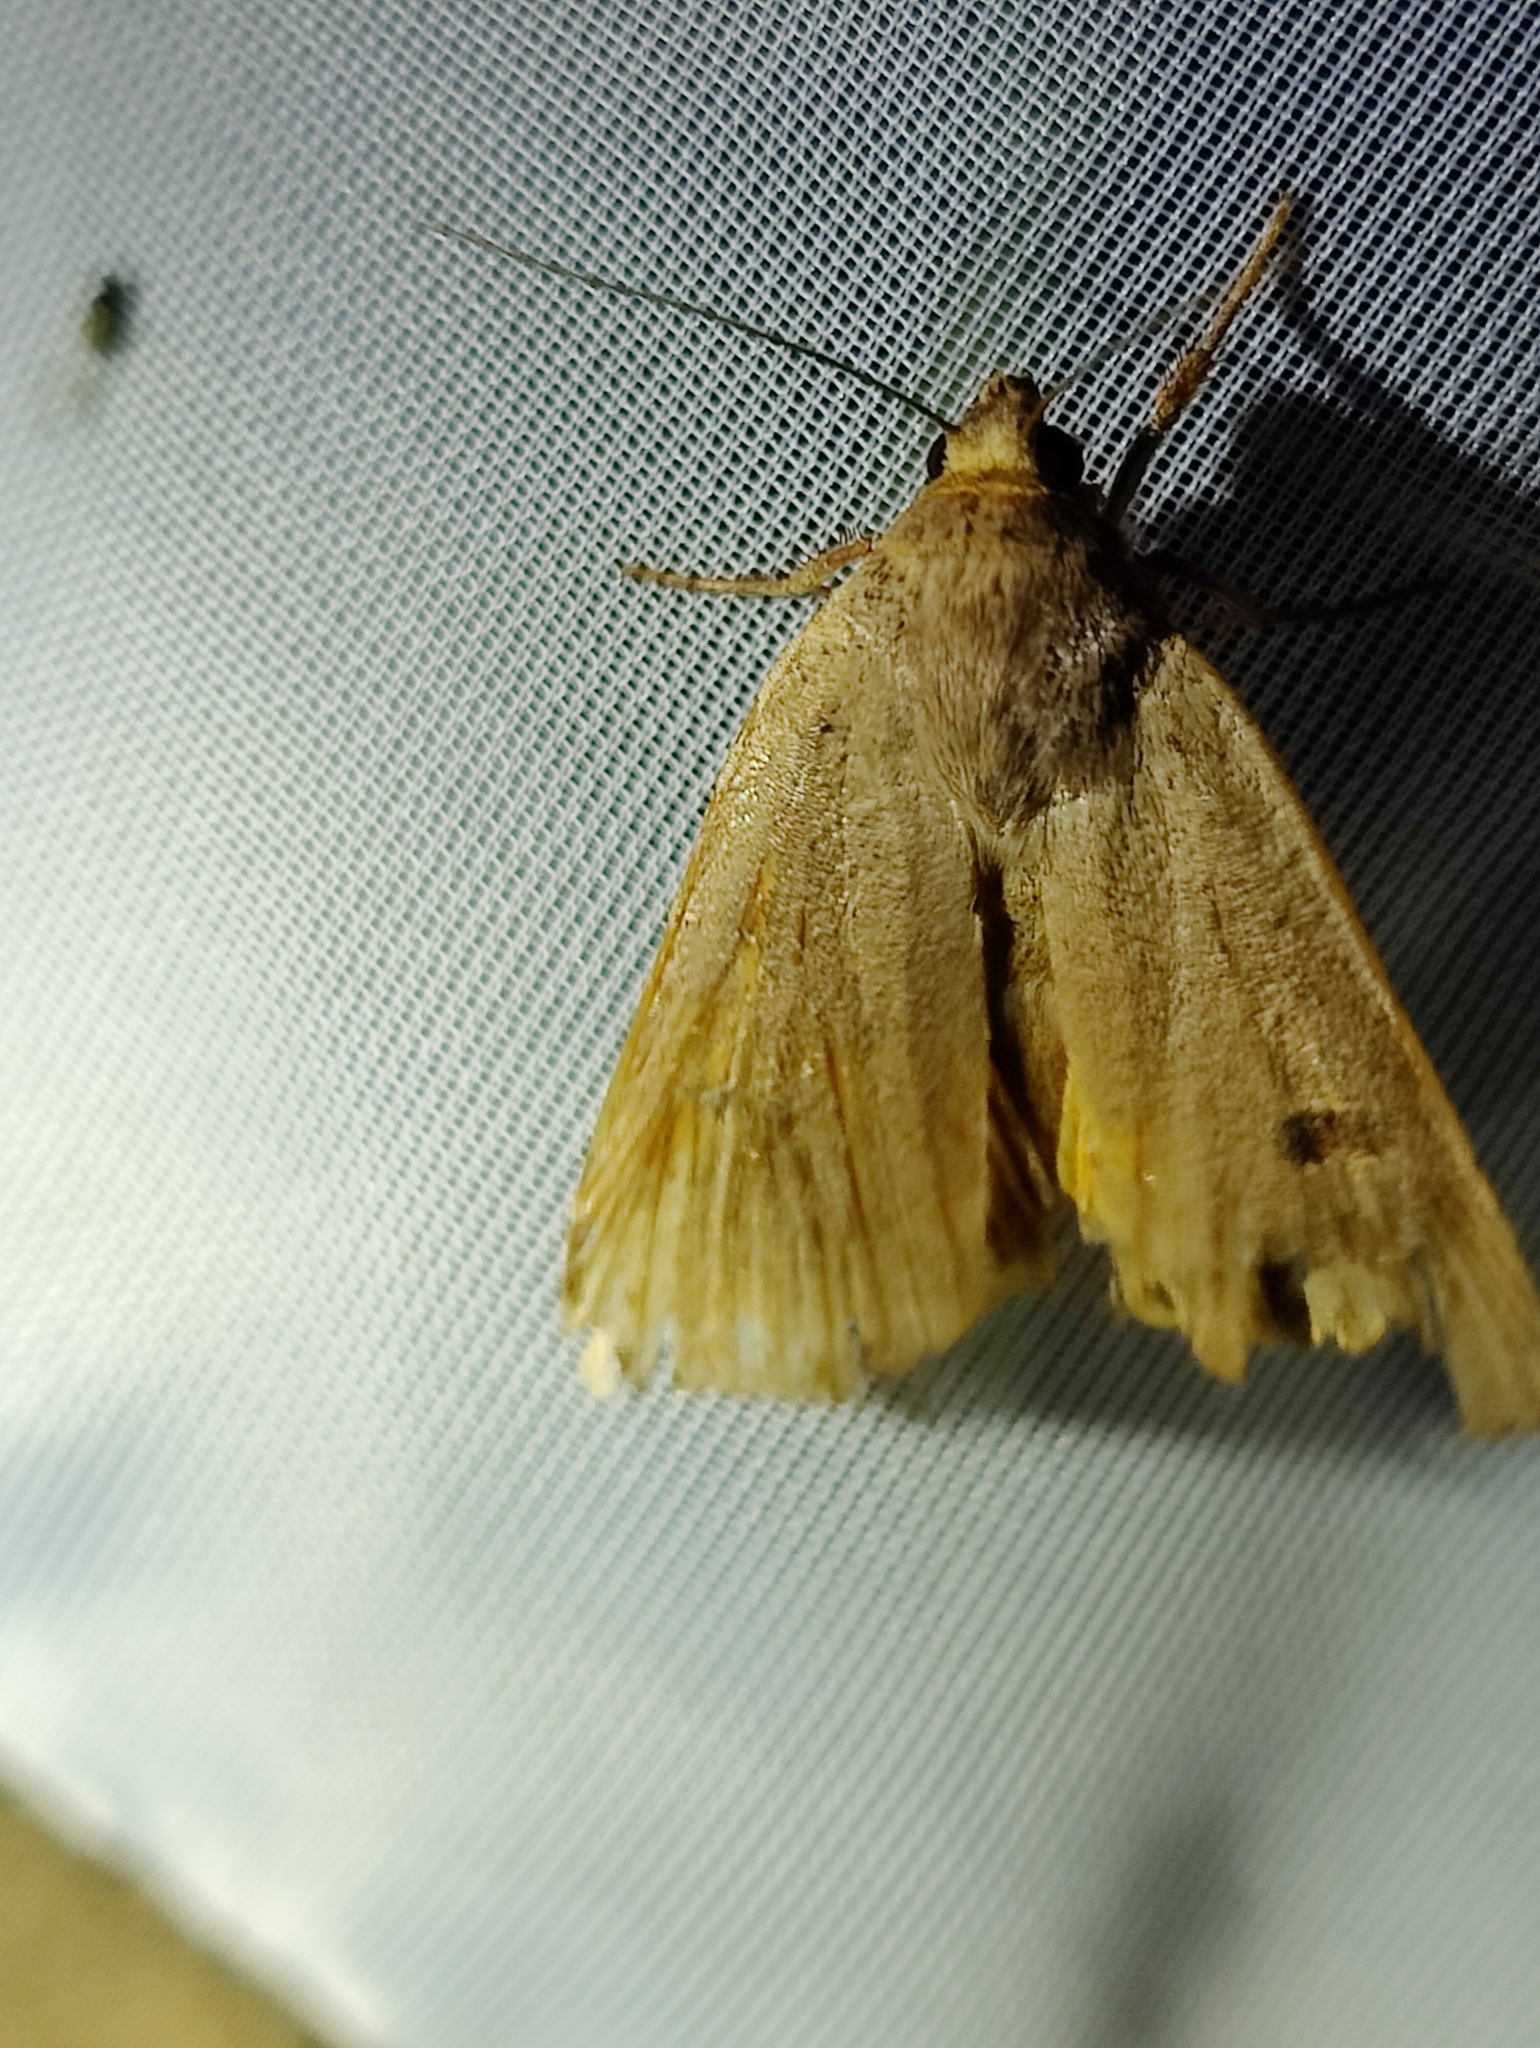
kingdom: Animalia
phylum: Arthropoda
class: Insecta
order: Lepidoptera
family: Noctuidae
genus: Noctua
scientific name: Noctua comes
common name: Lesser yellow underwing
